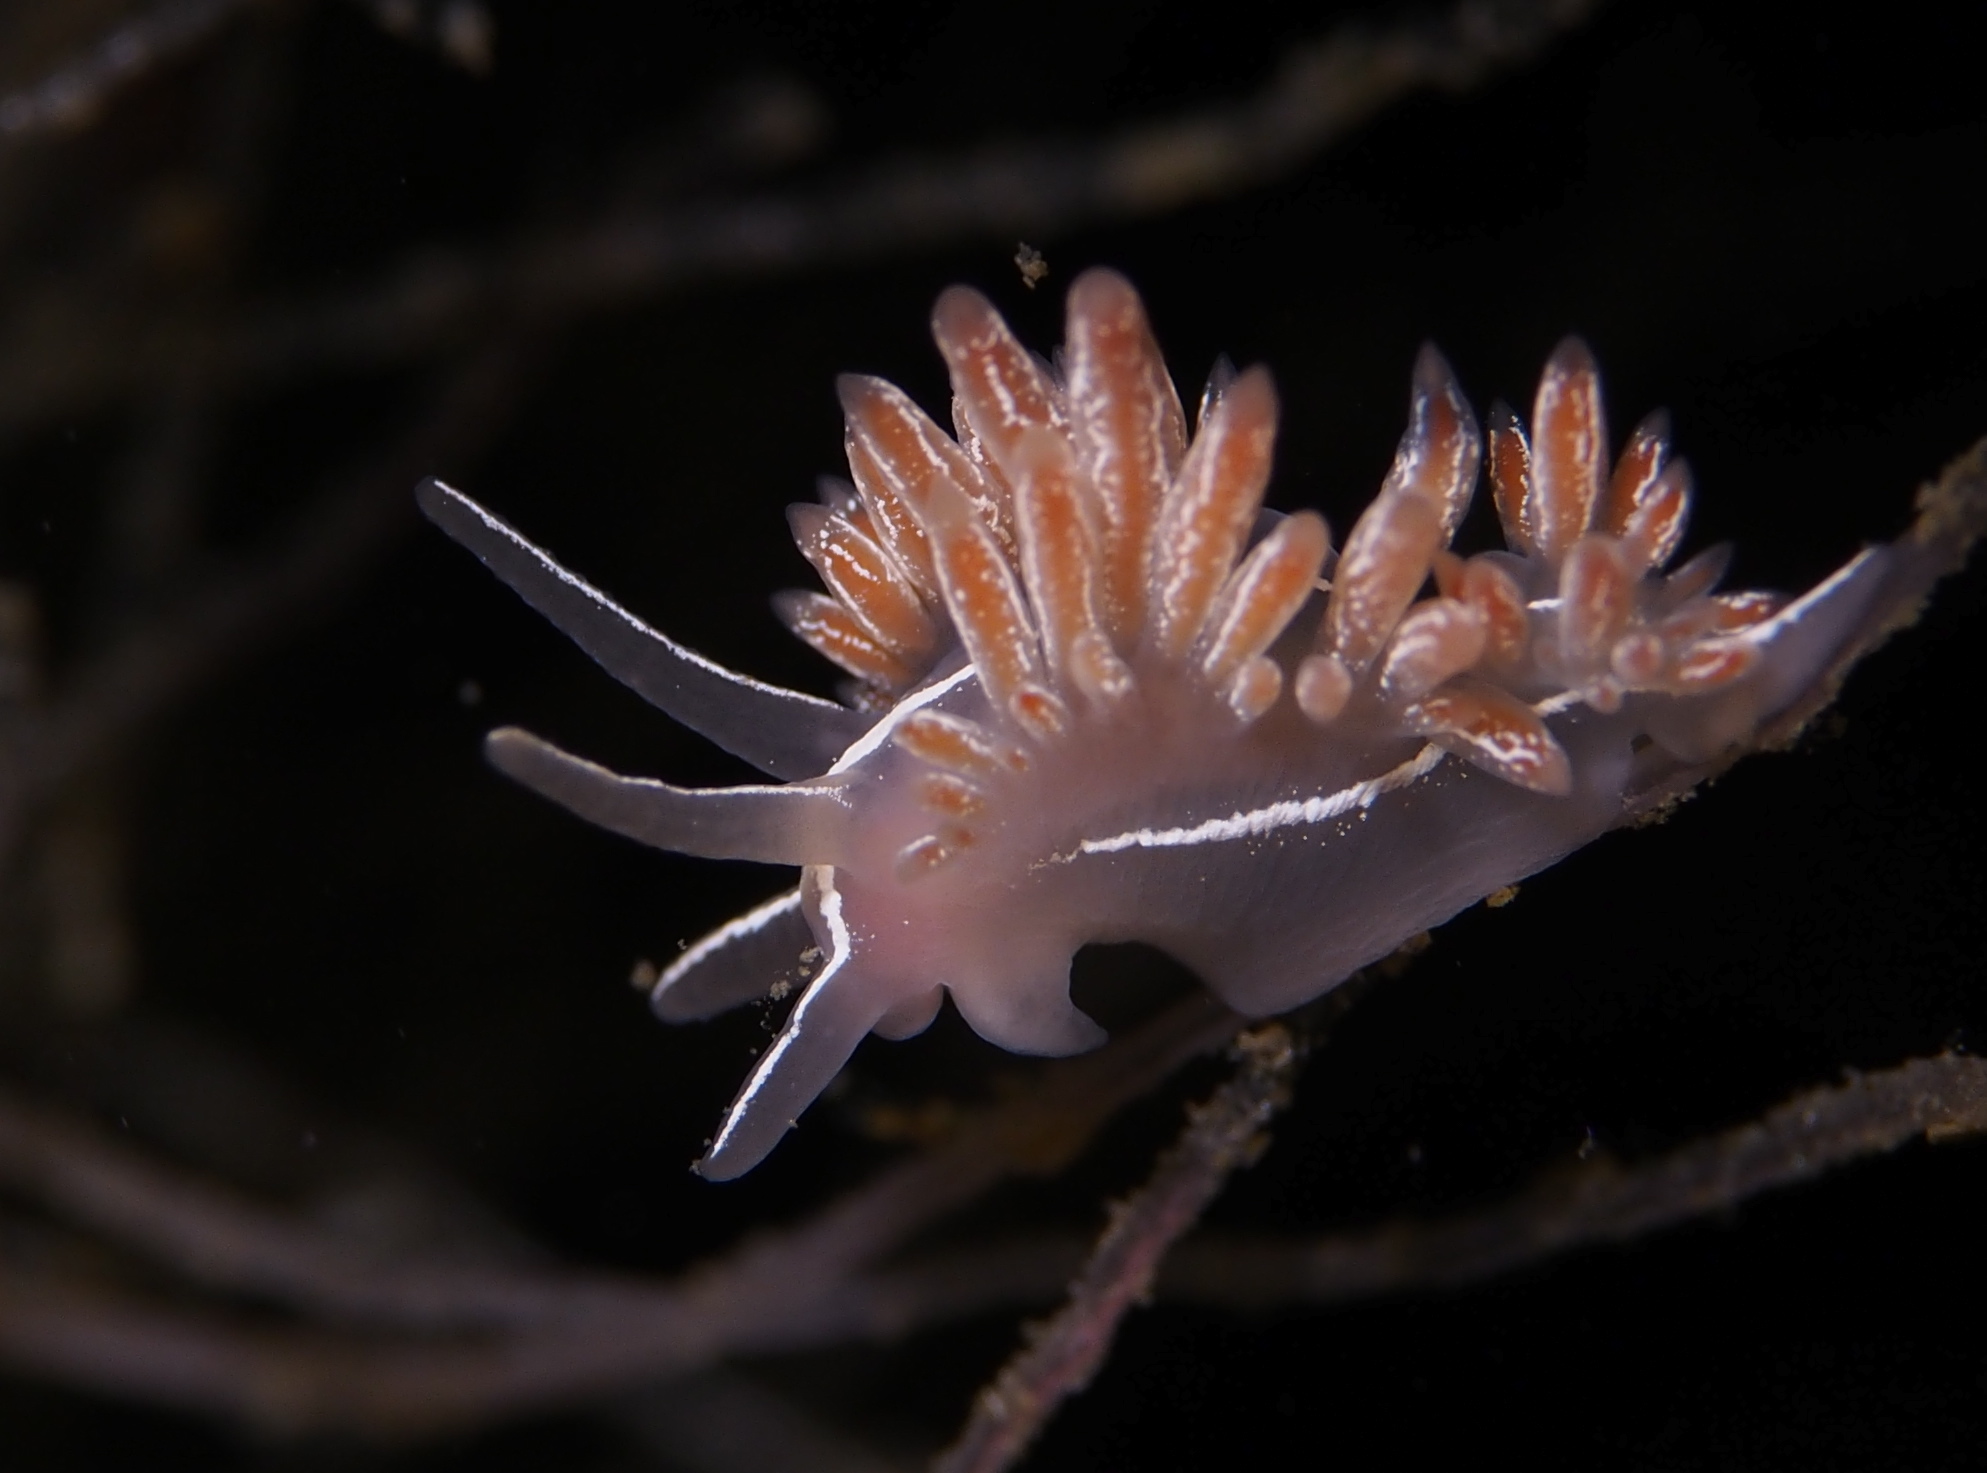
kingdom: Animalia
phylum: Mollusca
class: Gastropoda
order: Nudibranchia
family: Coryphellidae
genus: Coryphella
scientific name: Coryphella chriskaugei
